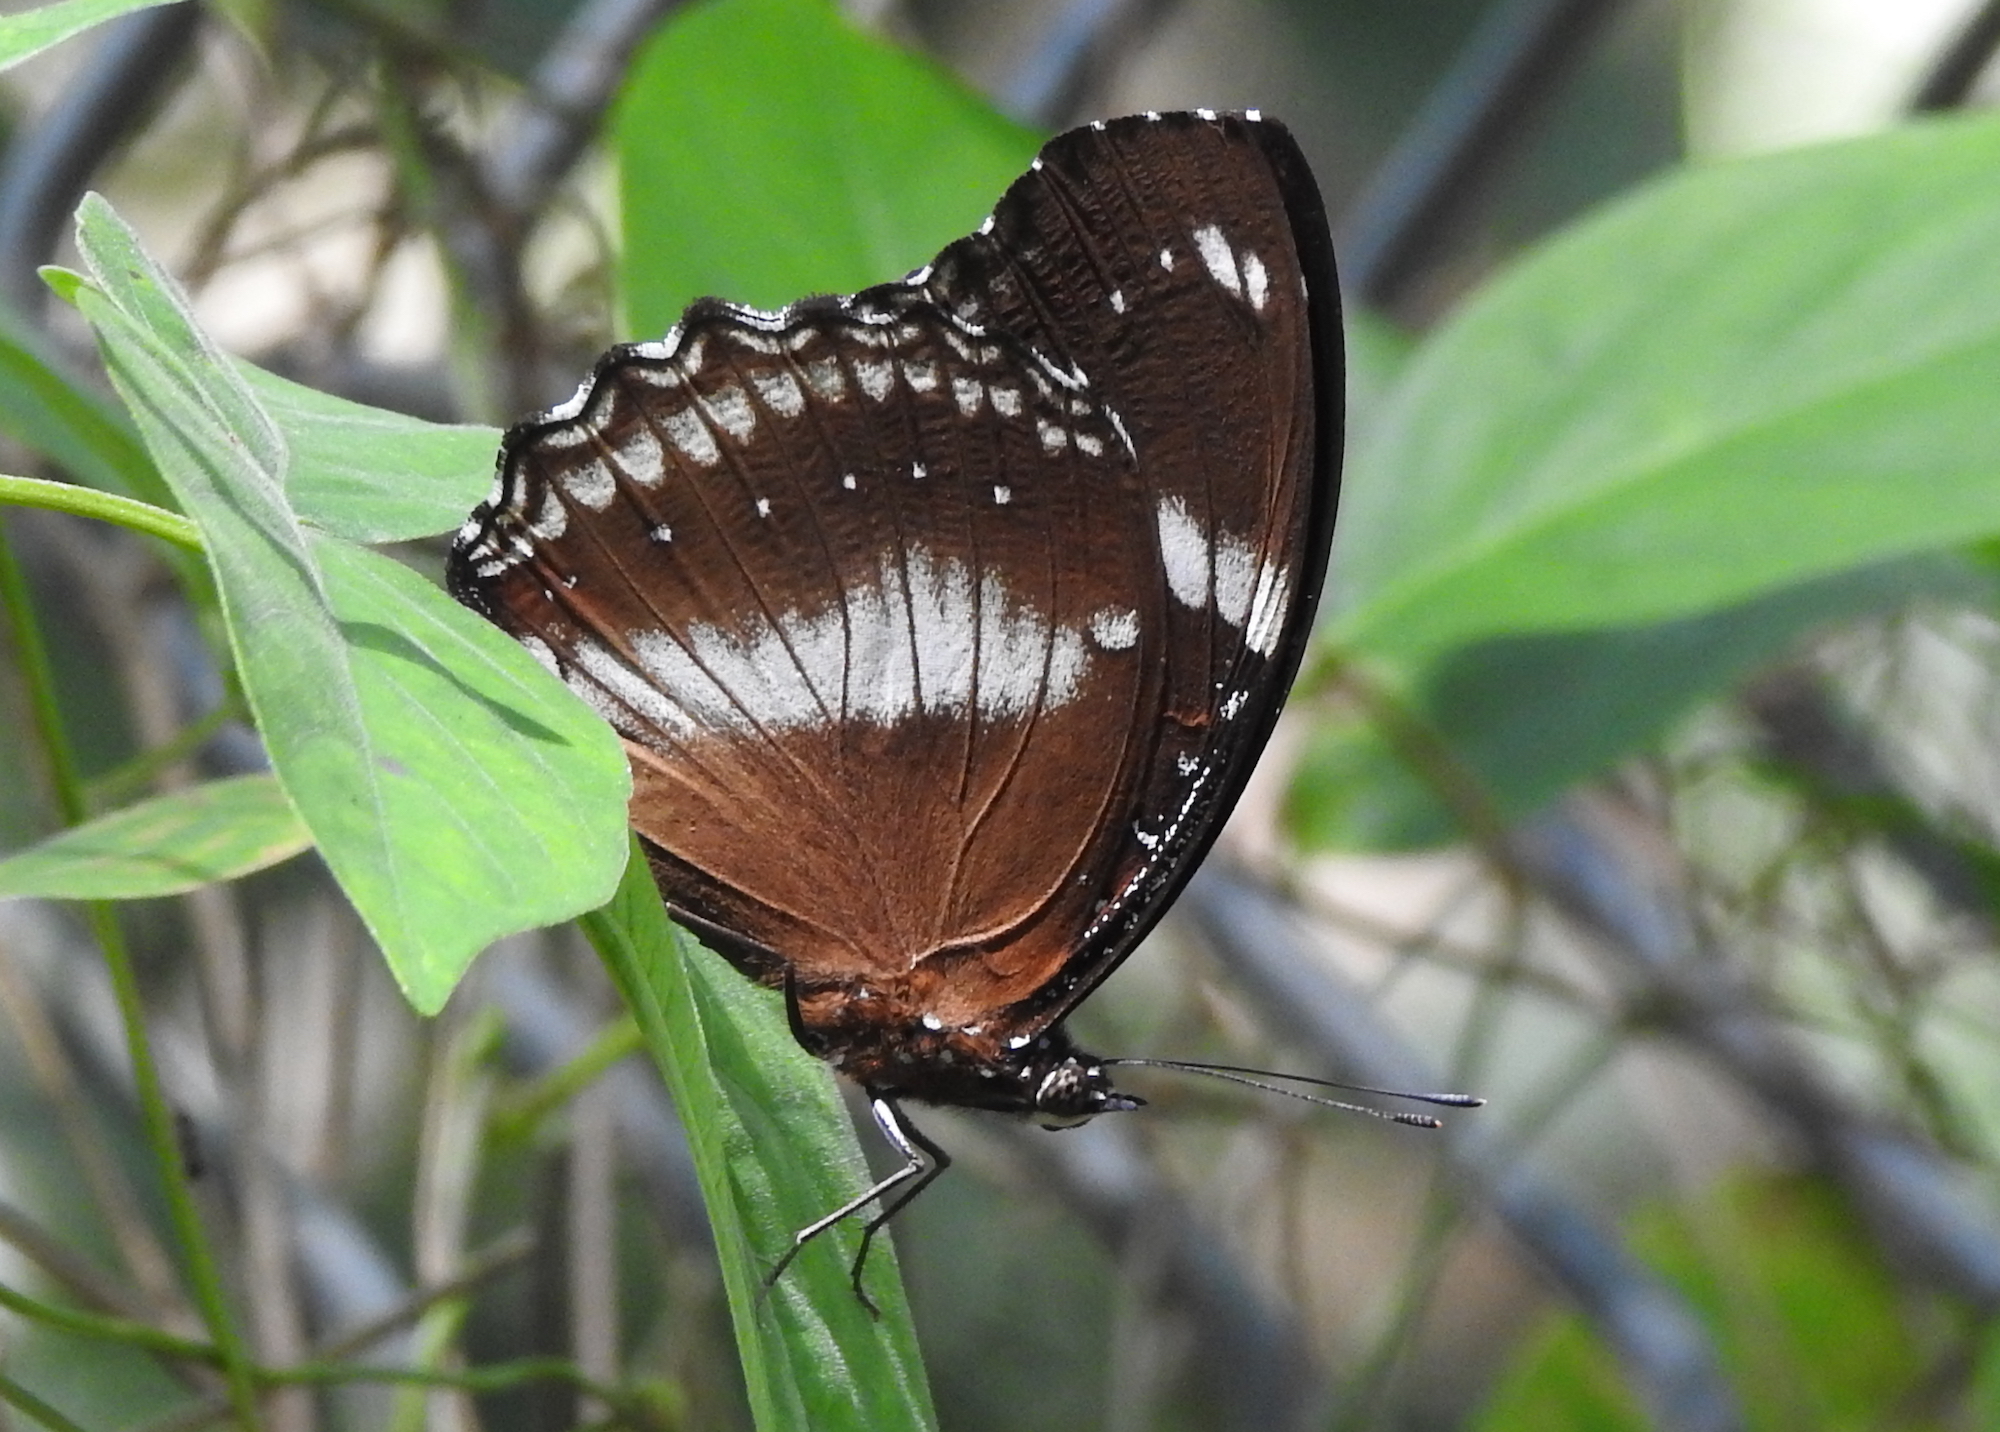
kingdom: Animalia
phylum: Arthropoda
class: Insecta
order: Lepidoptera
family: Nymphalidae
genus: Hypolimnas
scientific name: Hypolimnas bolina
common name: Great eggfly
